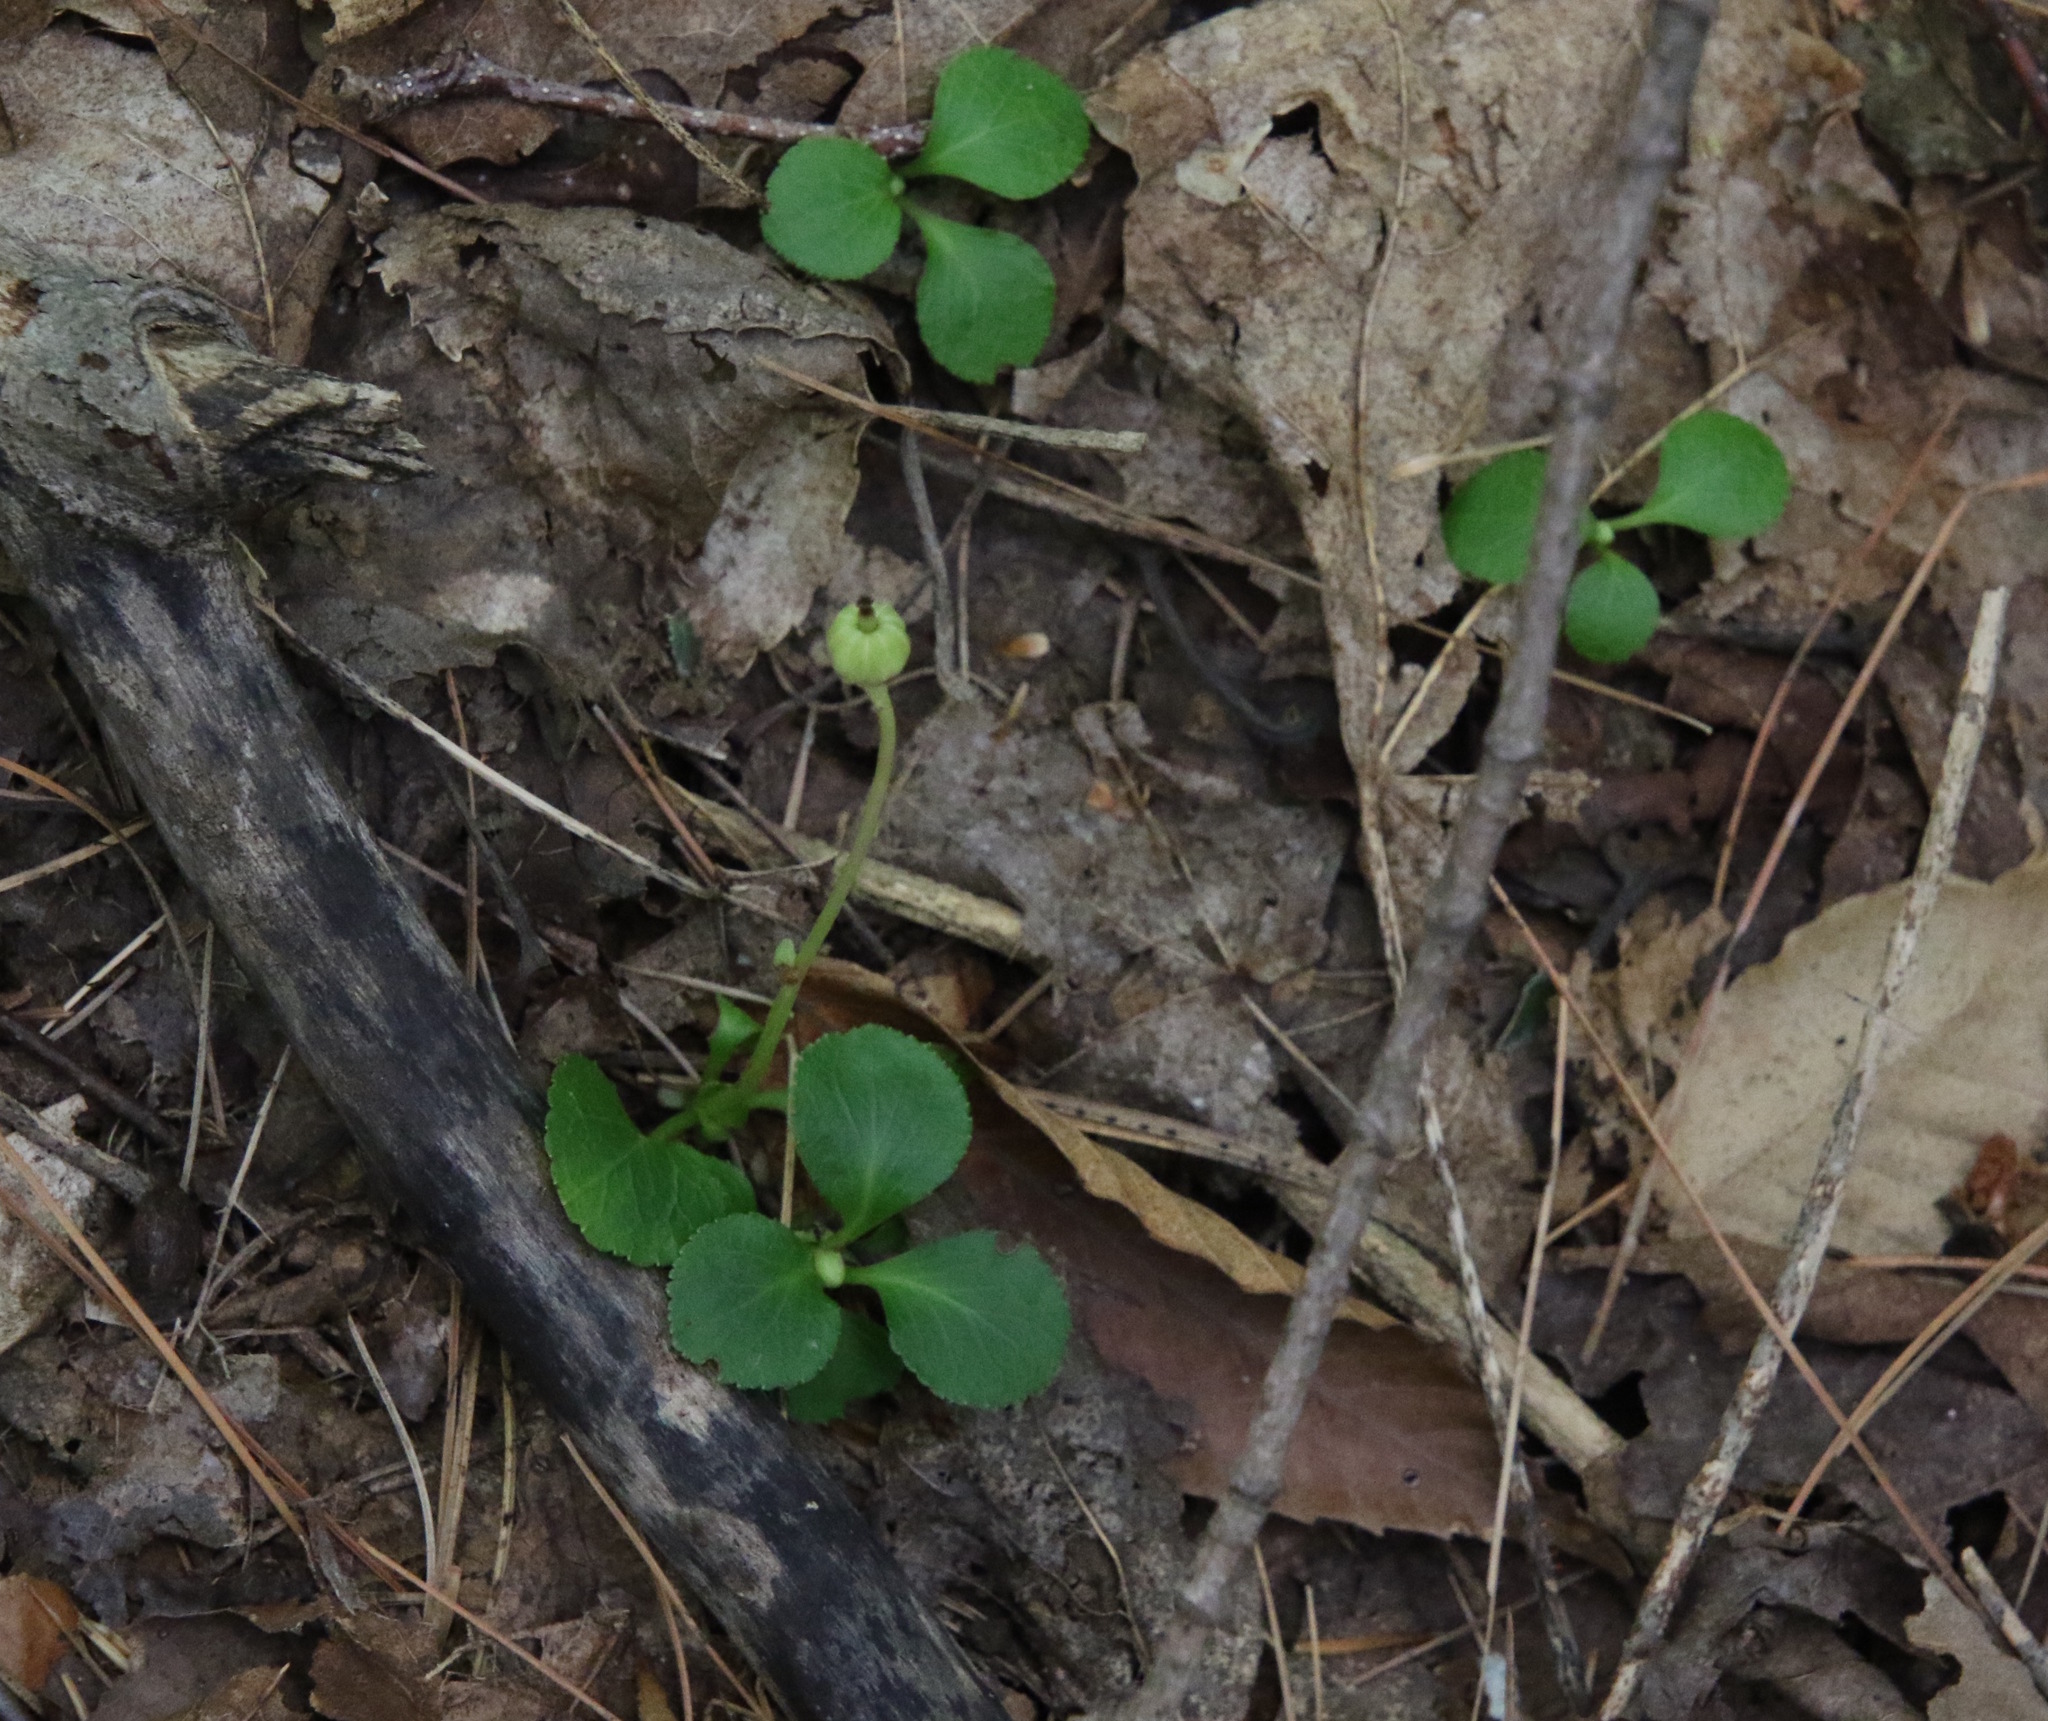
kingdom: Plantae
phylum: Tracheophyta
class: Magnoliopsida
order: Ericales
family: Ericaceae
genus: Moneses
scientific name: Moneses uniflora
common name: One-flowered wintergreen
